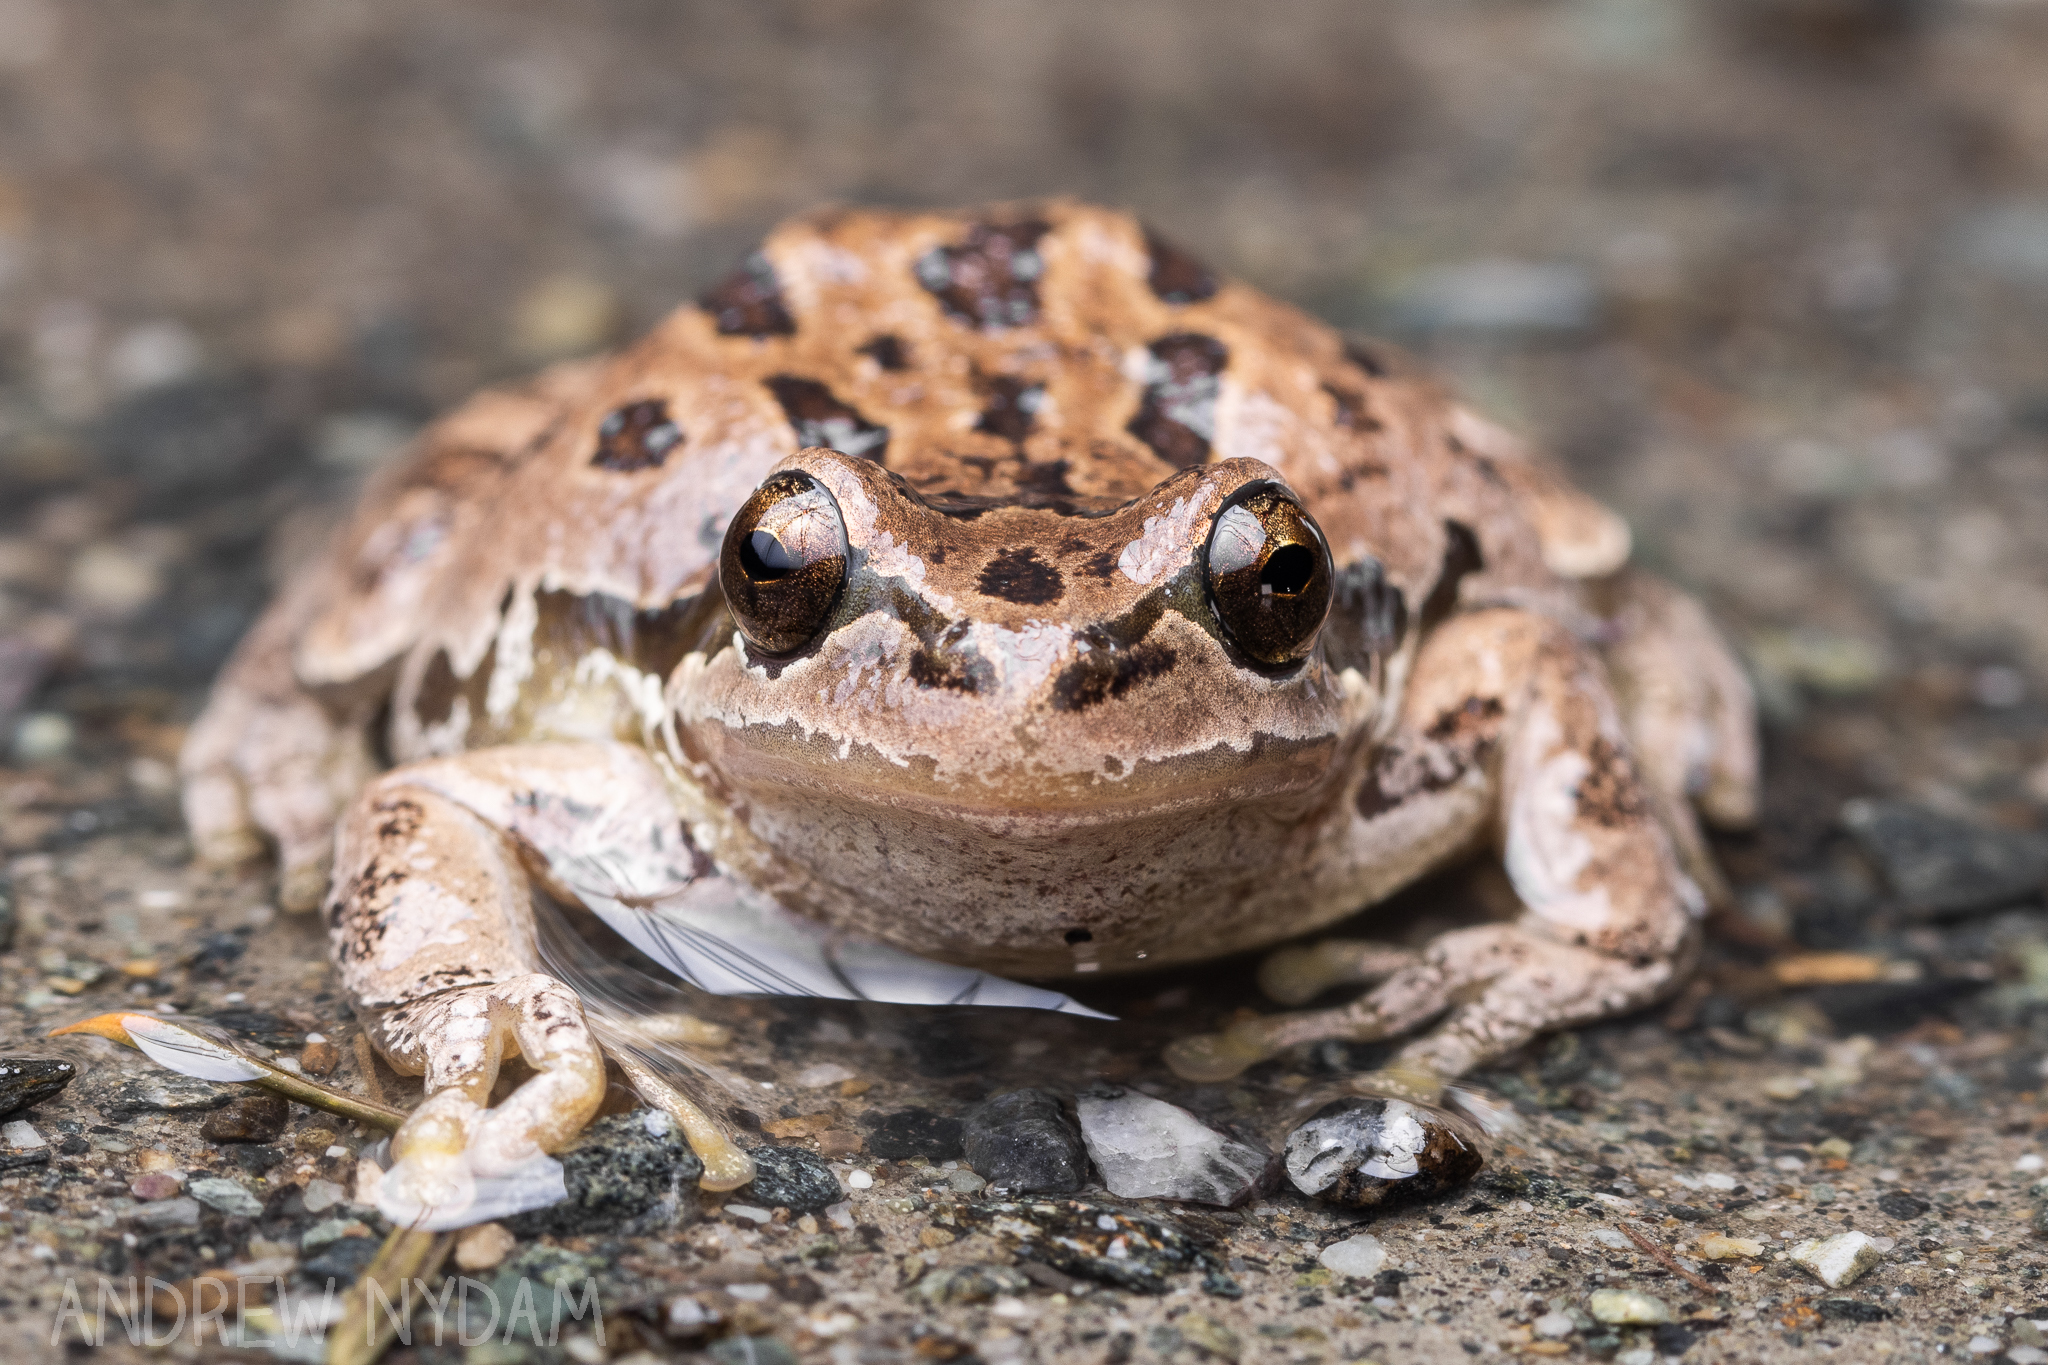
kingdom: Animalia
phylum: Chordata
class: Amphibia
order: Anura
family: Hylidae
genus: Pseudacris
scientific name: Pseudacris regilla
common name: Pacific chorus frog
